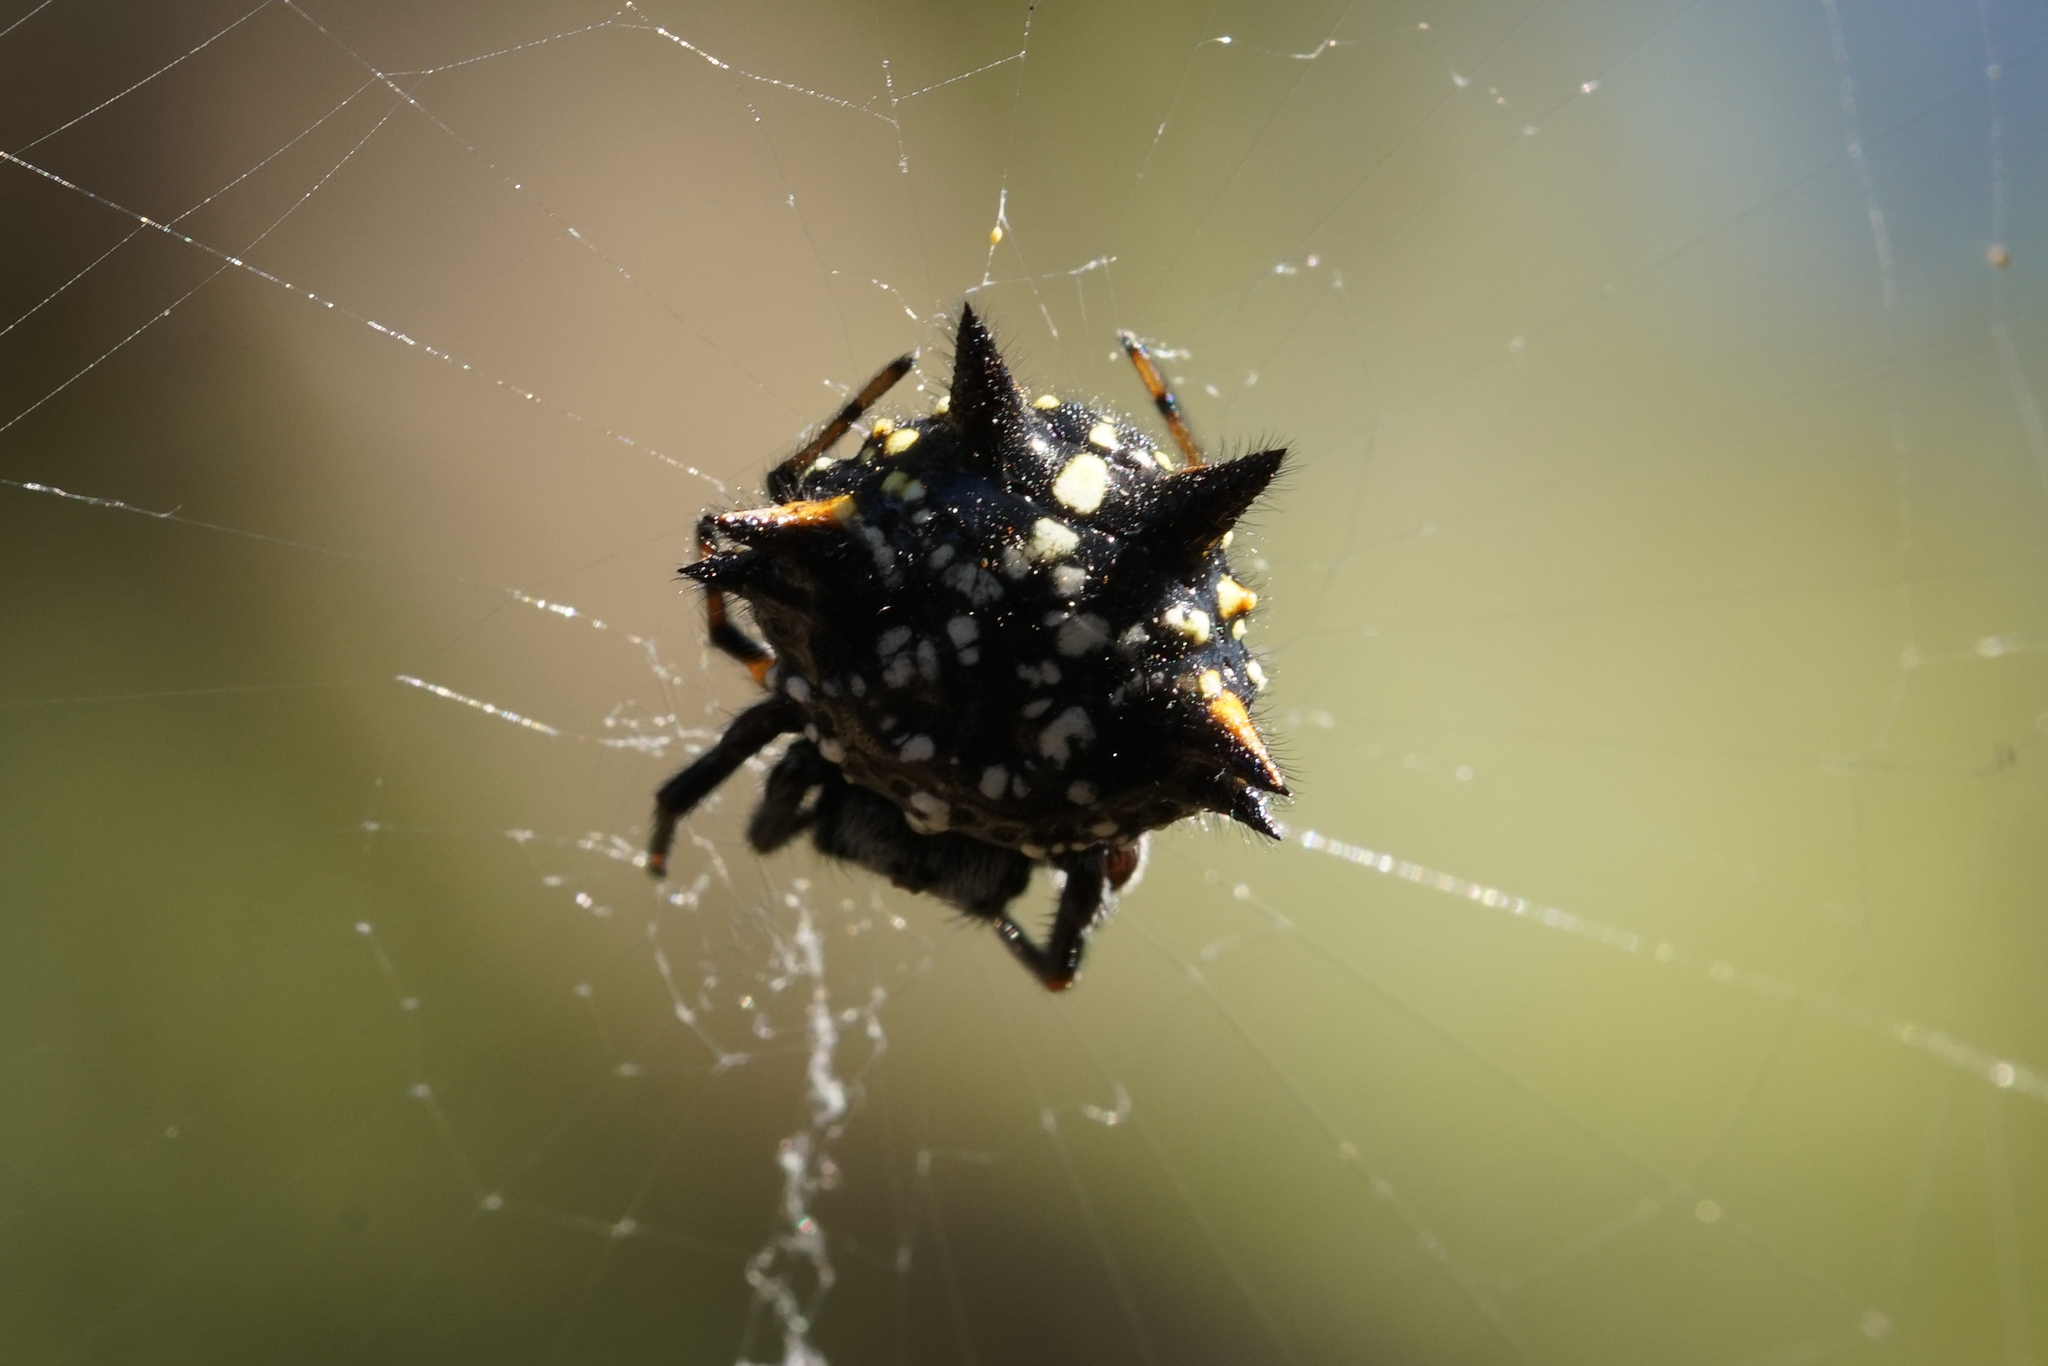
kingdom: Animalia
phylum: Arthropoda
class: Arachnida
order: Araneae
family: Araneidae
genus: Austracantha
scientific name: Austracantha minax
